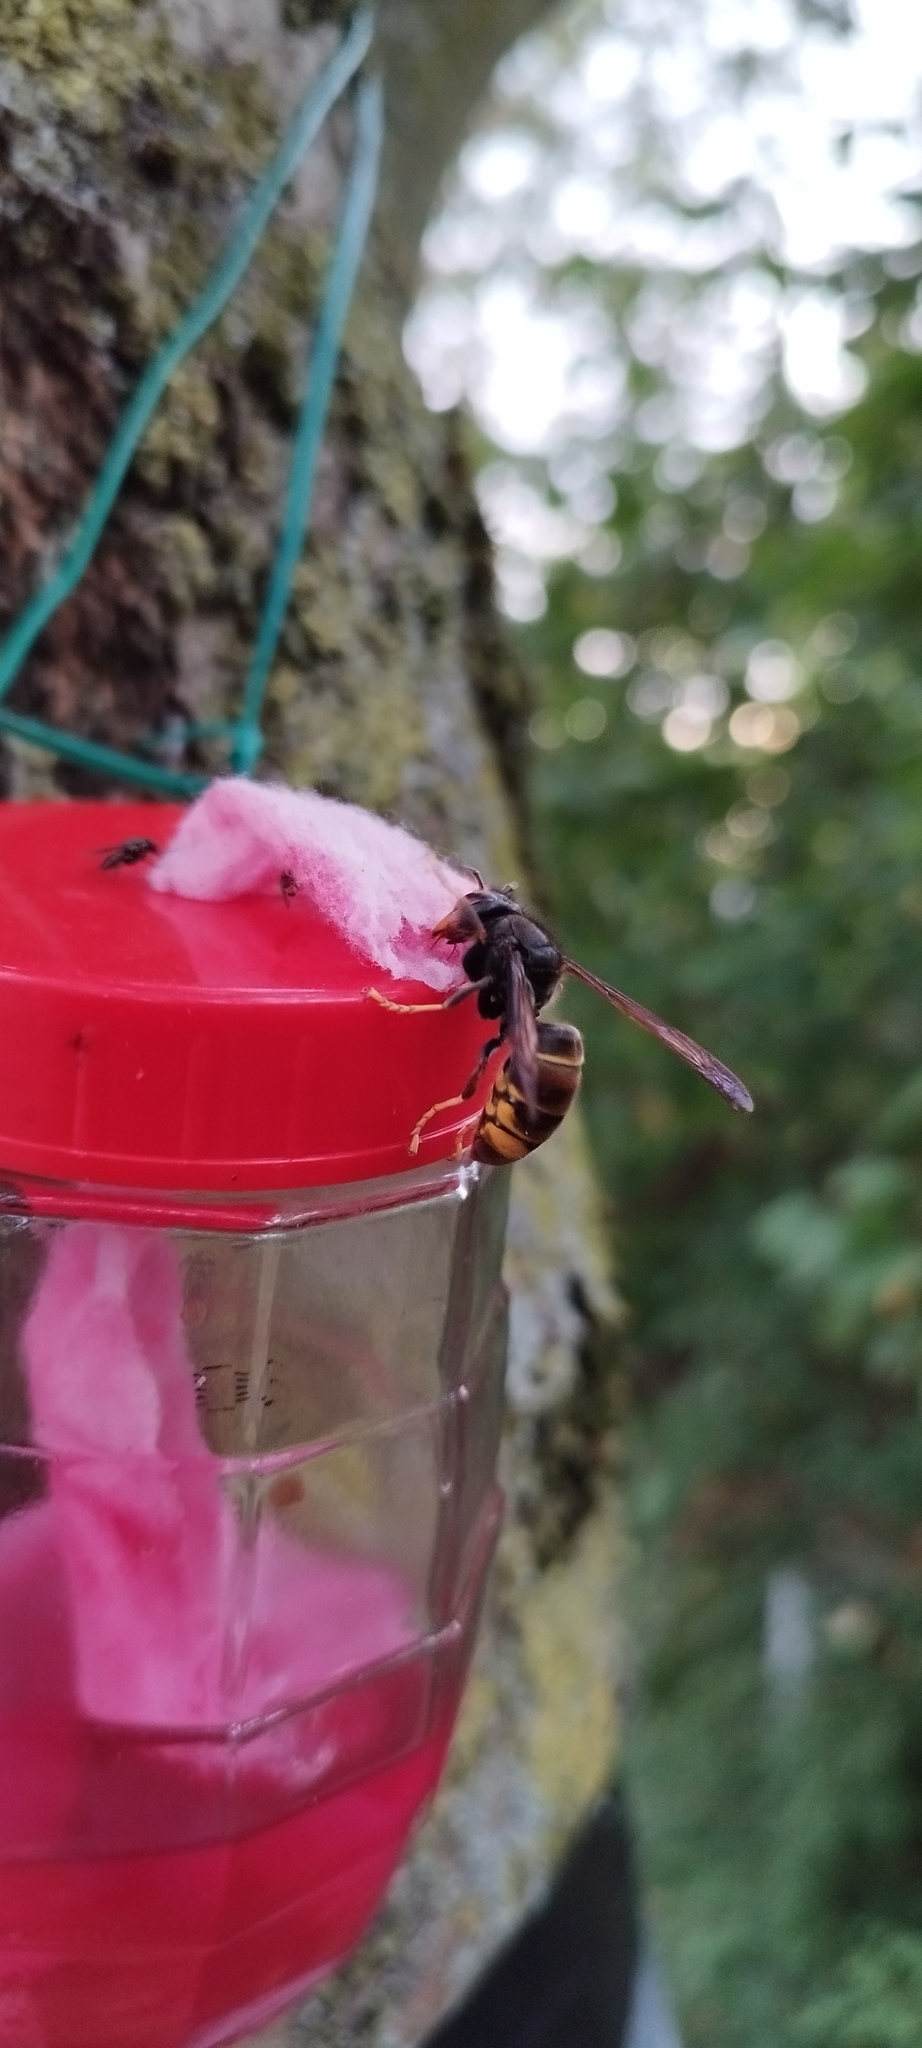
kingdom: Animalia
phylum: Arthropoda
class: Insecta
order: Hymenoptera
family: Vespidae
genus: Vespa
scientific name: Vespa velutina
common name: Asian hornet
